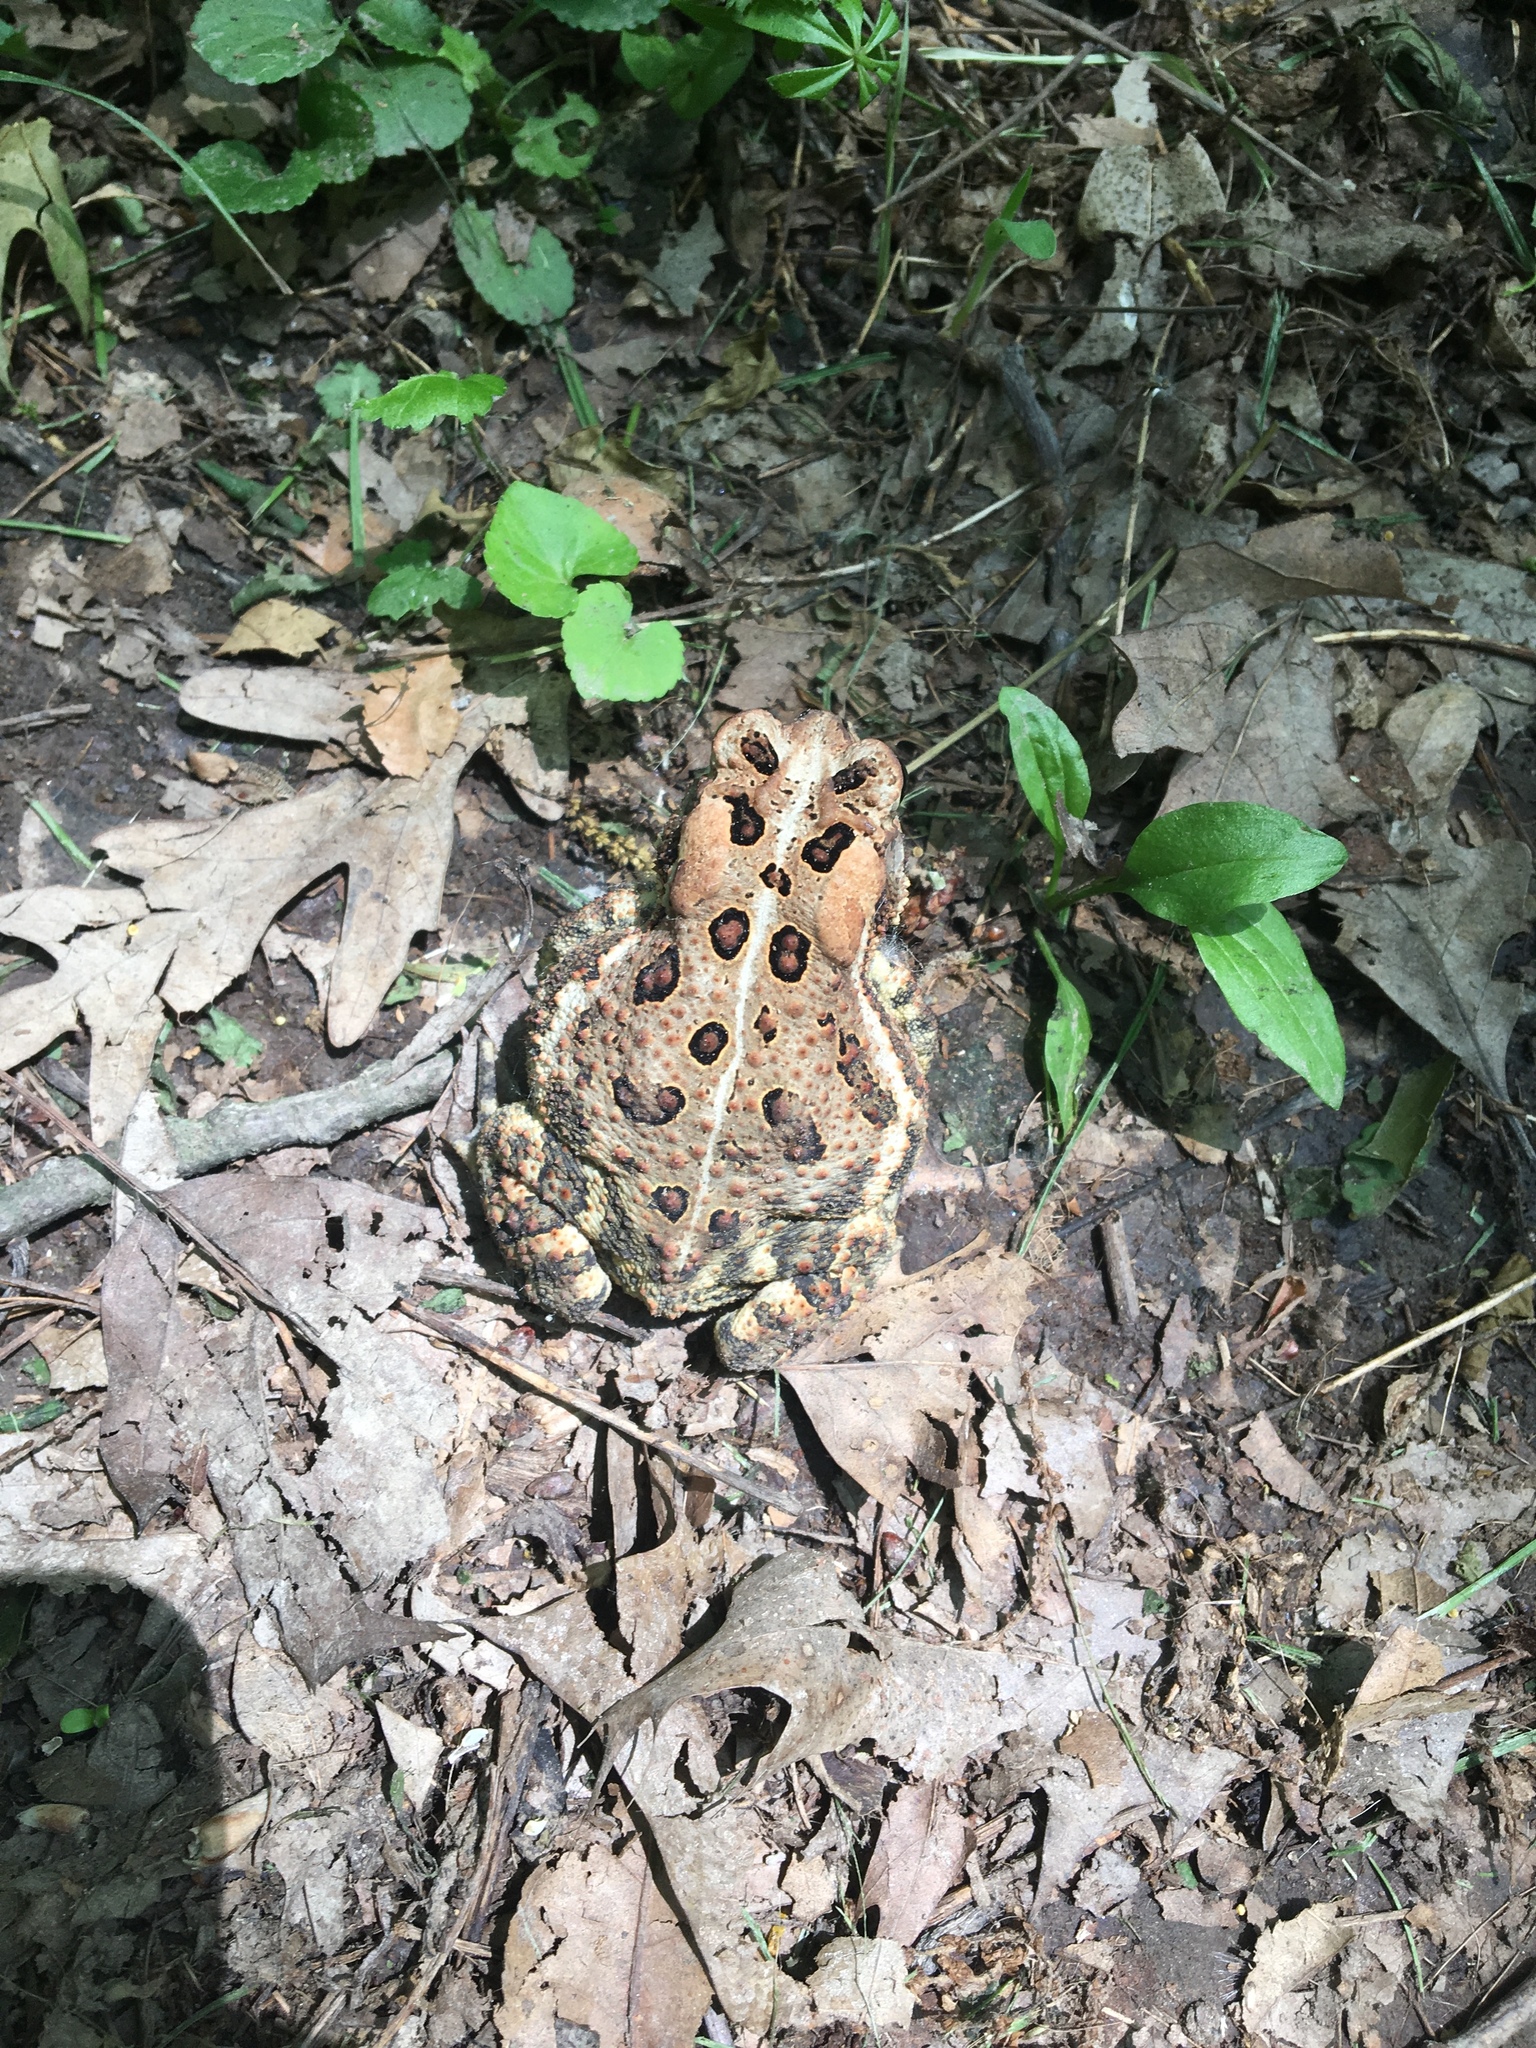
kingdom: Animalia
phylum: Chordata
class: Amphibia
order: Anura
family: Bufonidae
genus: Anaxyrus
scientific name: Anaxyrus americanus
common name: American toad
